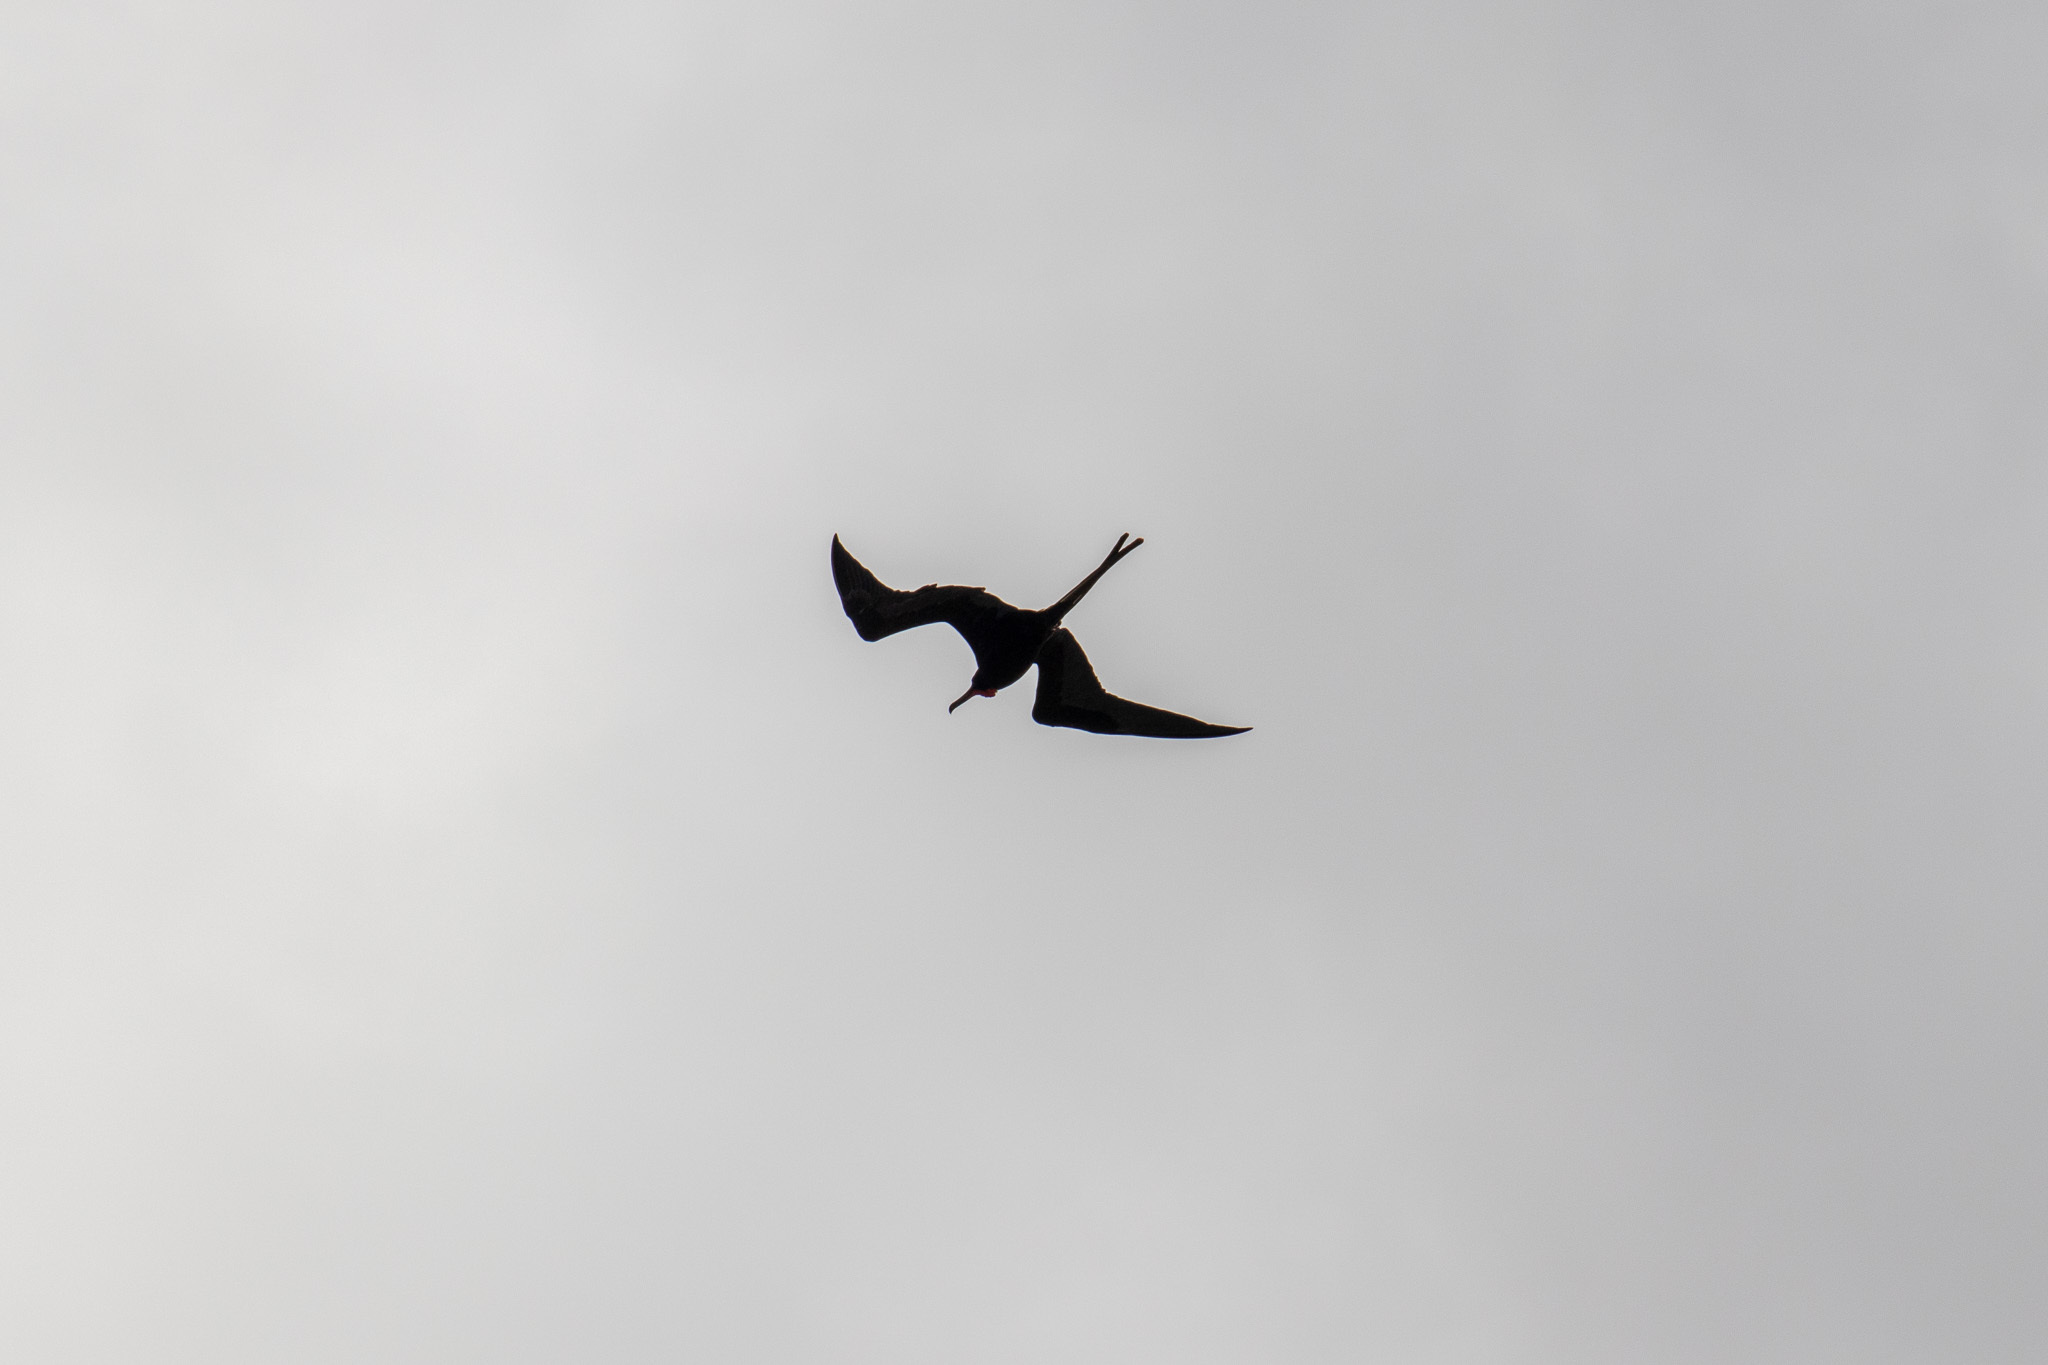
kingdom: Animalia
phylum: Chordata
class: Aves
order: Suliformes
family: Fregatidae
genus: Fregata
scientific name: Fregata magnificens
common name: Magnificent frigatebird
